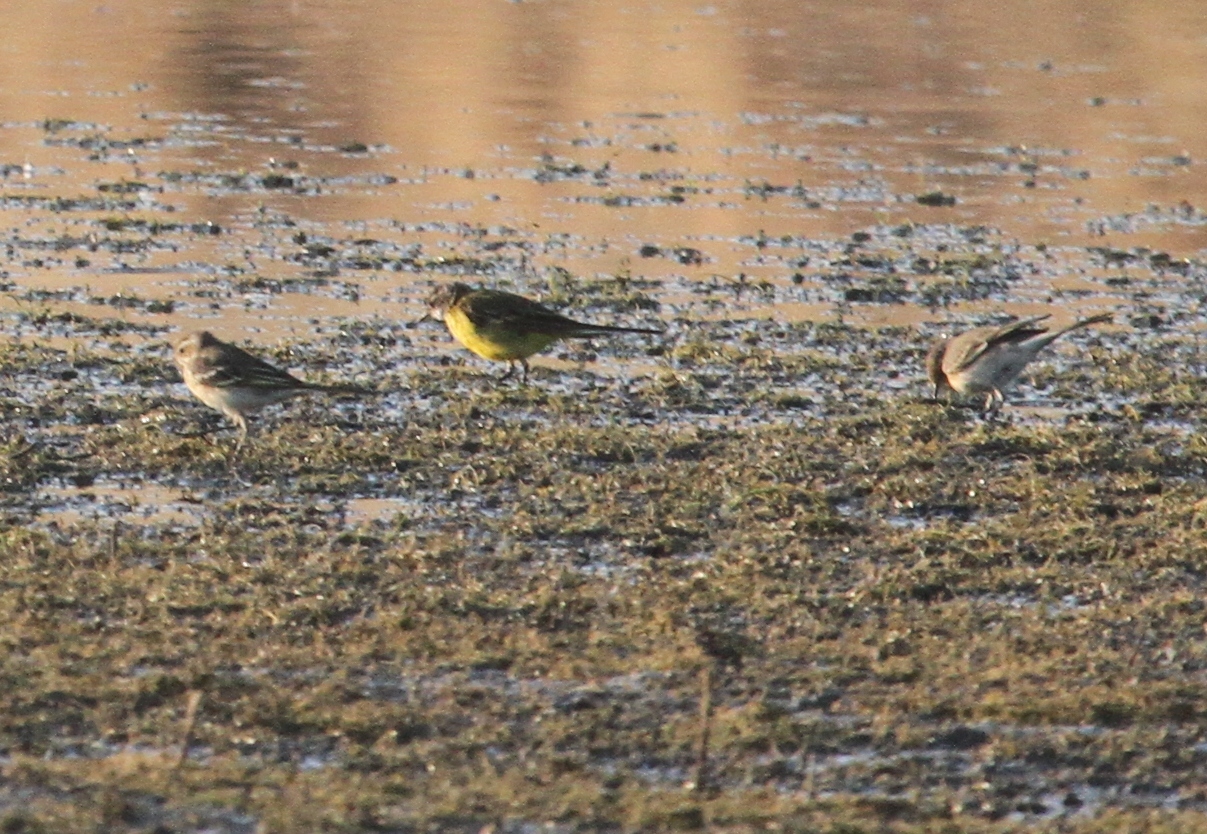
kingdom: Animalia
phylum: Chordata
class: Aves
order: Passeriformes
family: Motacillidae
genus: Motacilla
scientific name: Motacilla flava
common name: Western yellow wagtail
